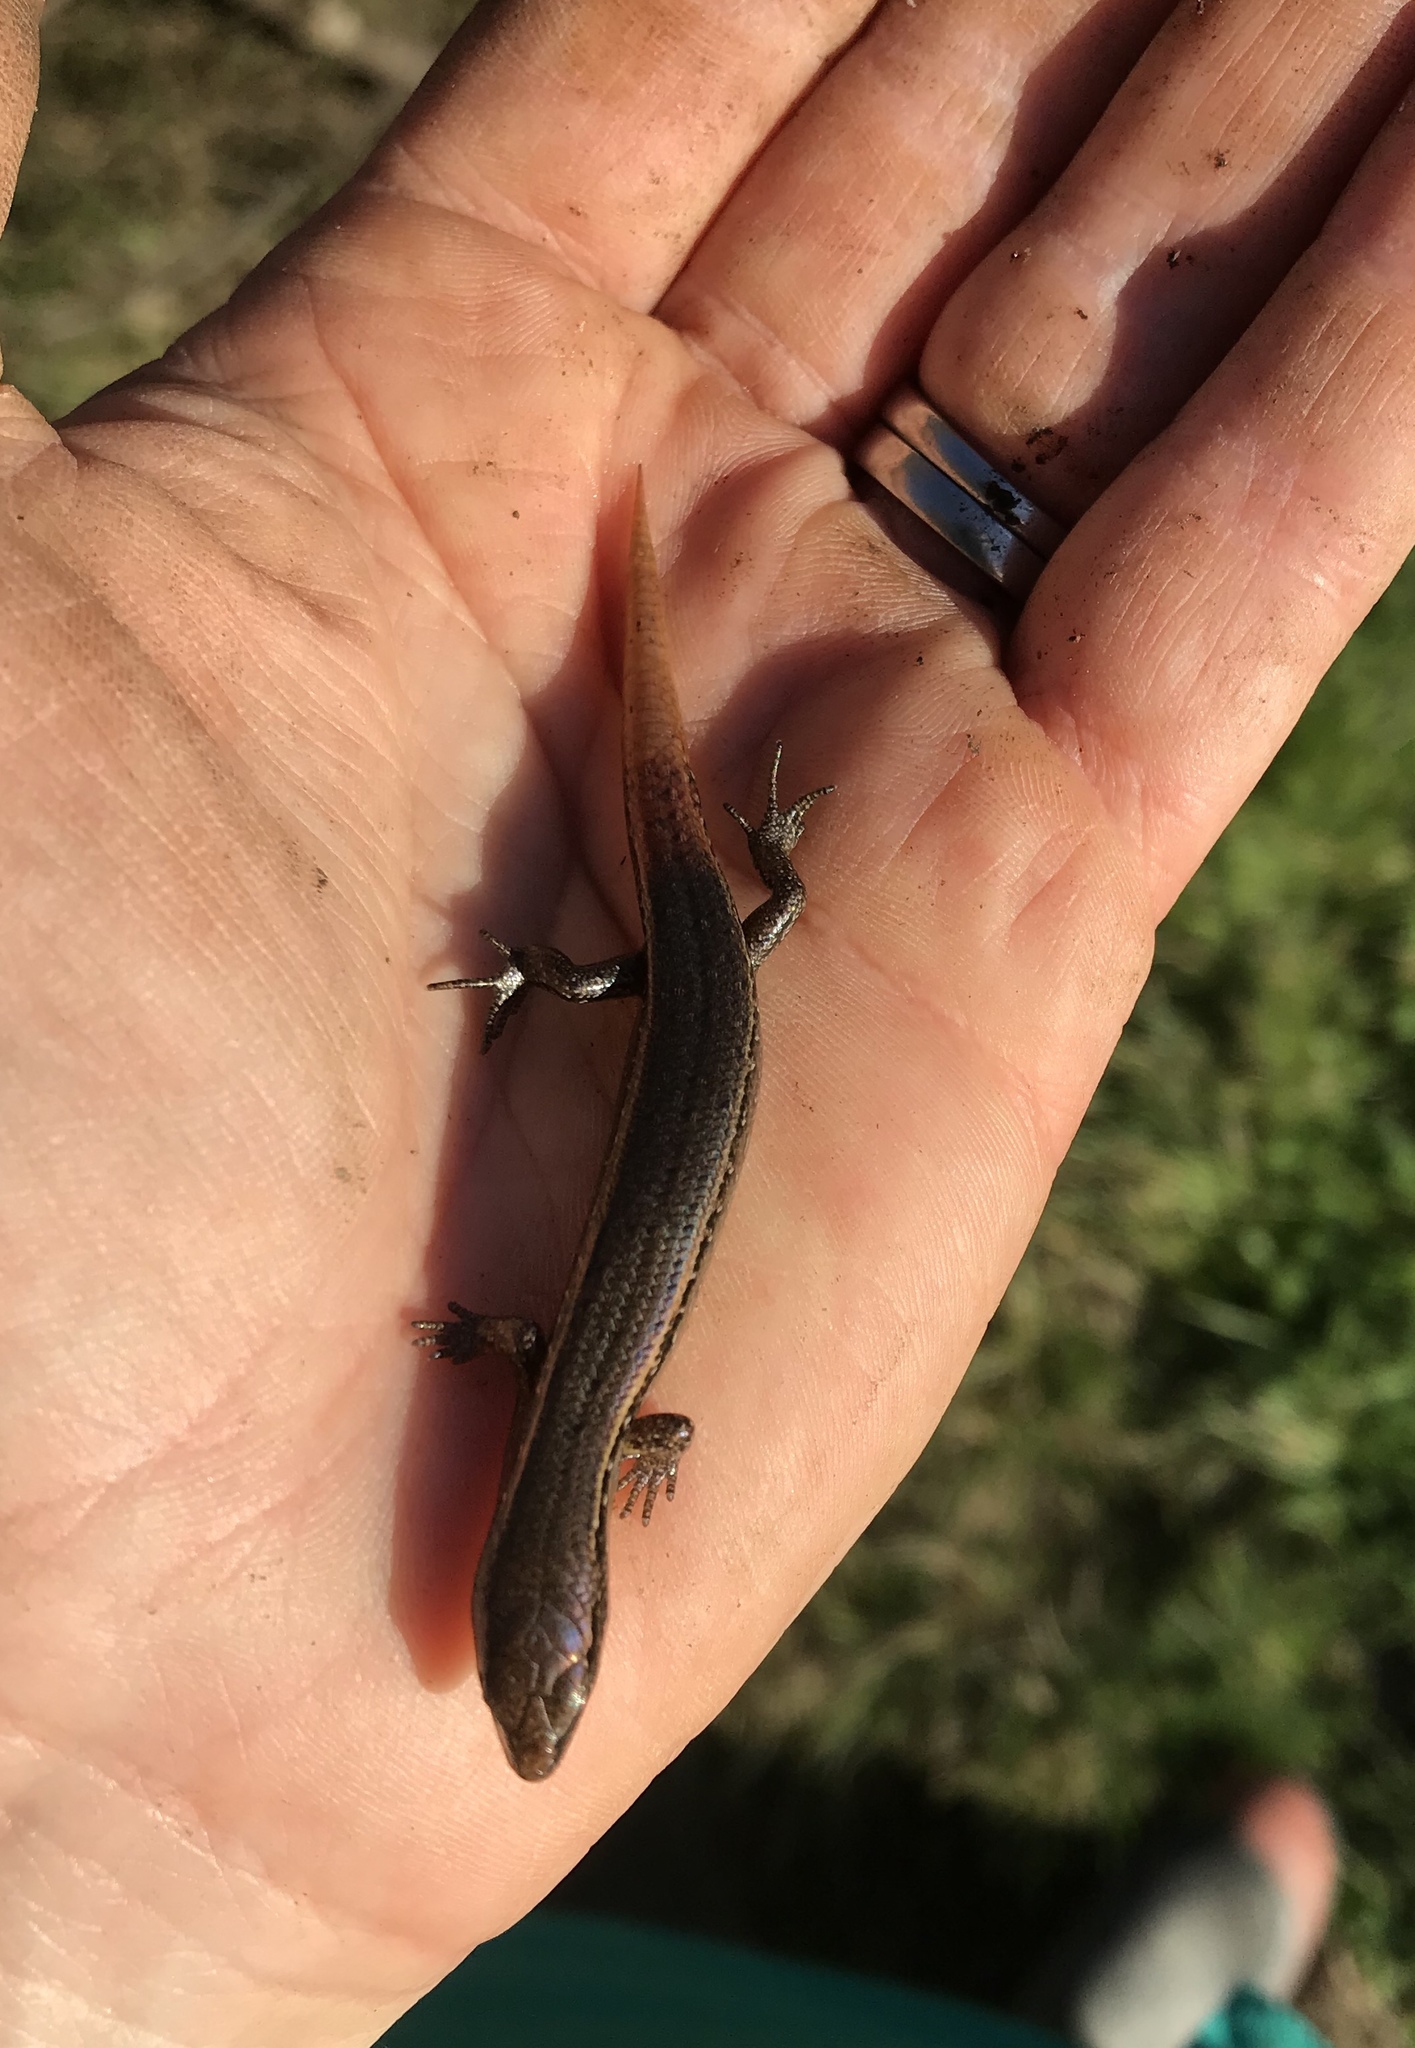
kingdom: Animalia
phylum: Chordata
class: Squamata
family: Scincidae
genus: Oligosoma
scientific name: Oligosoma aeneum
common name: Copper skink
